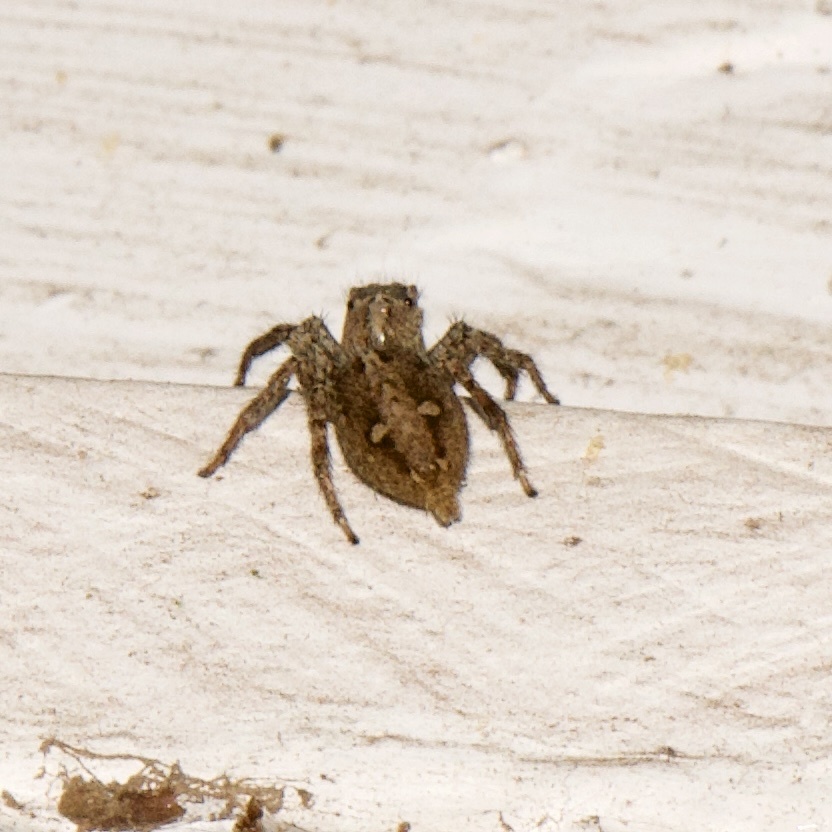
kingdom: Animalia
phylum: Arthropoda
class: Arachnida
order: Araneae
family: Salticidae
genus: Plexippus
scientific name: Plexippus paykulli
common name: Pantropical jumper
